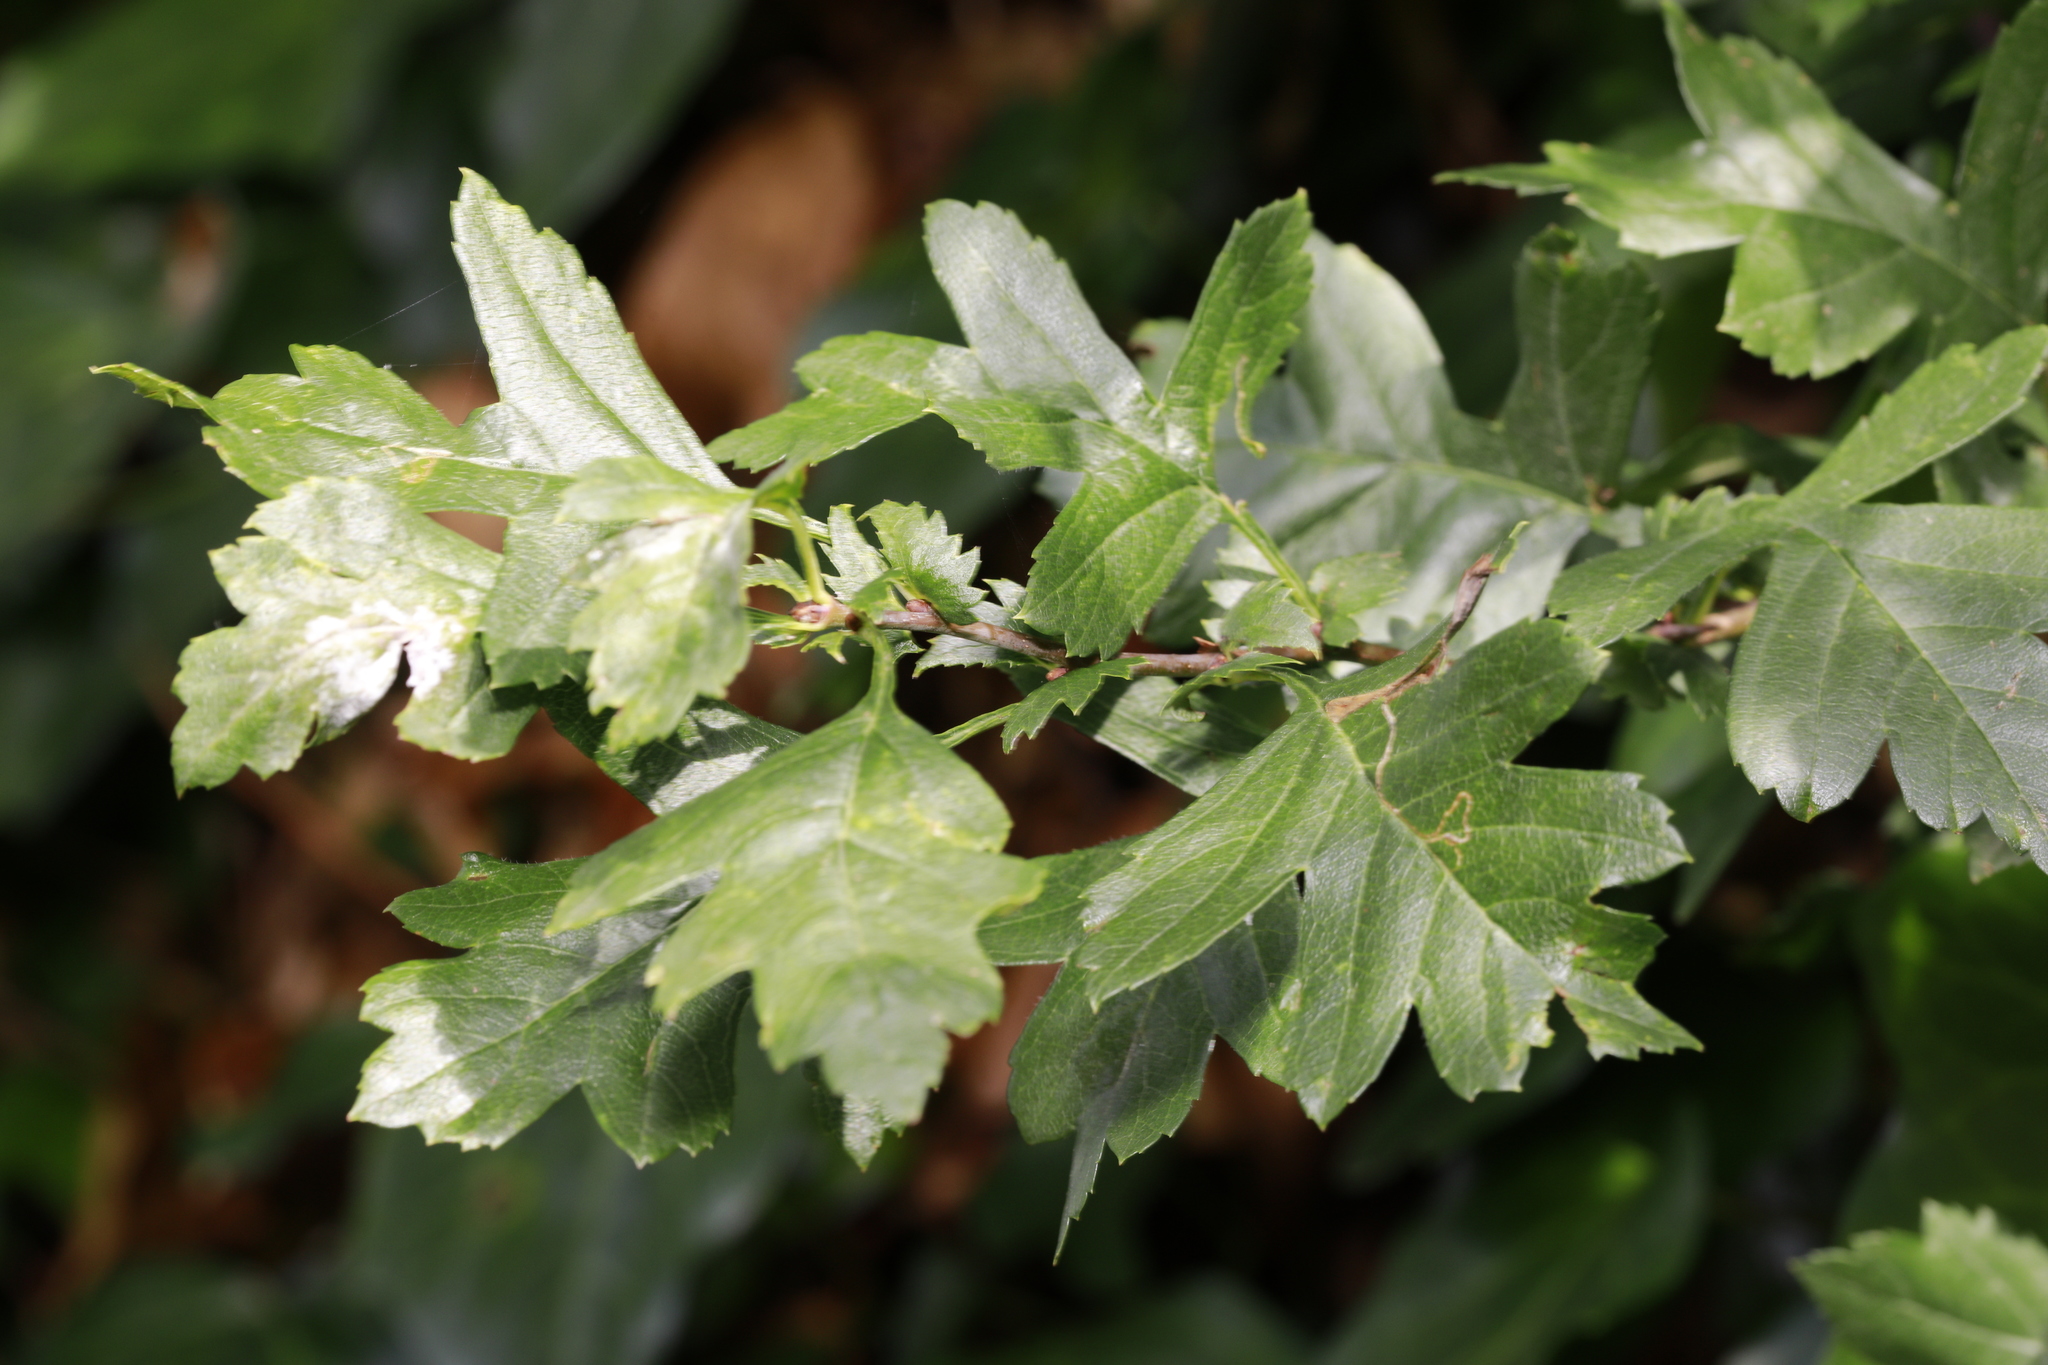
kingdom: Plantae
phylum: Tracheophyta
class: Magnoliopsida
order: Rosales
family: Rosaceae
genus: Crataegus
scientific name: Crataegus monogyna
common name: Hawthorn
